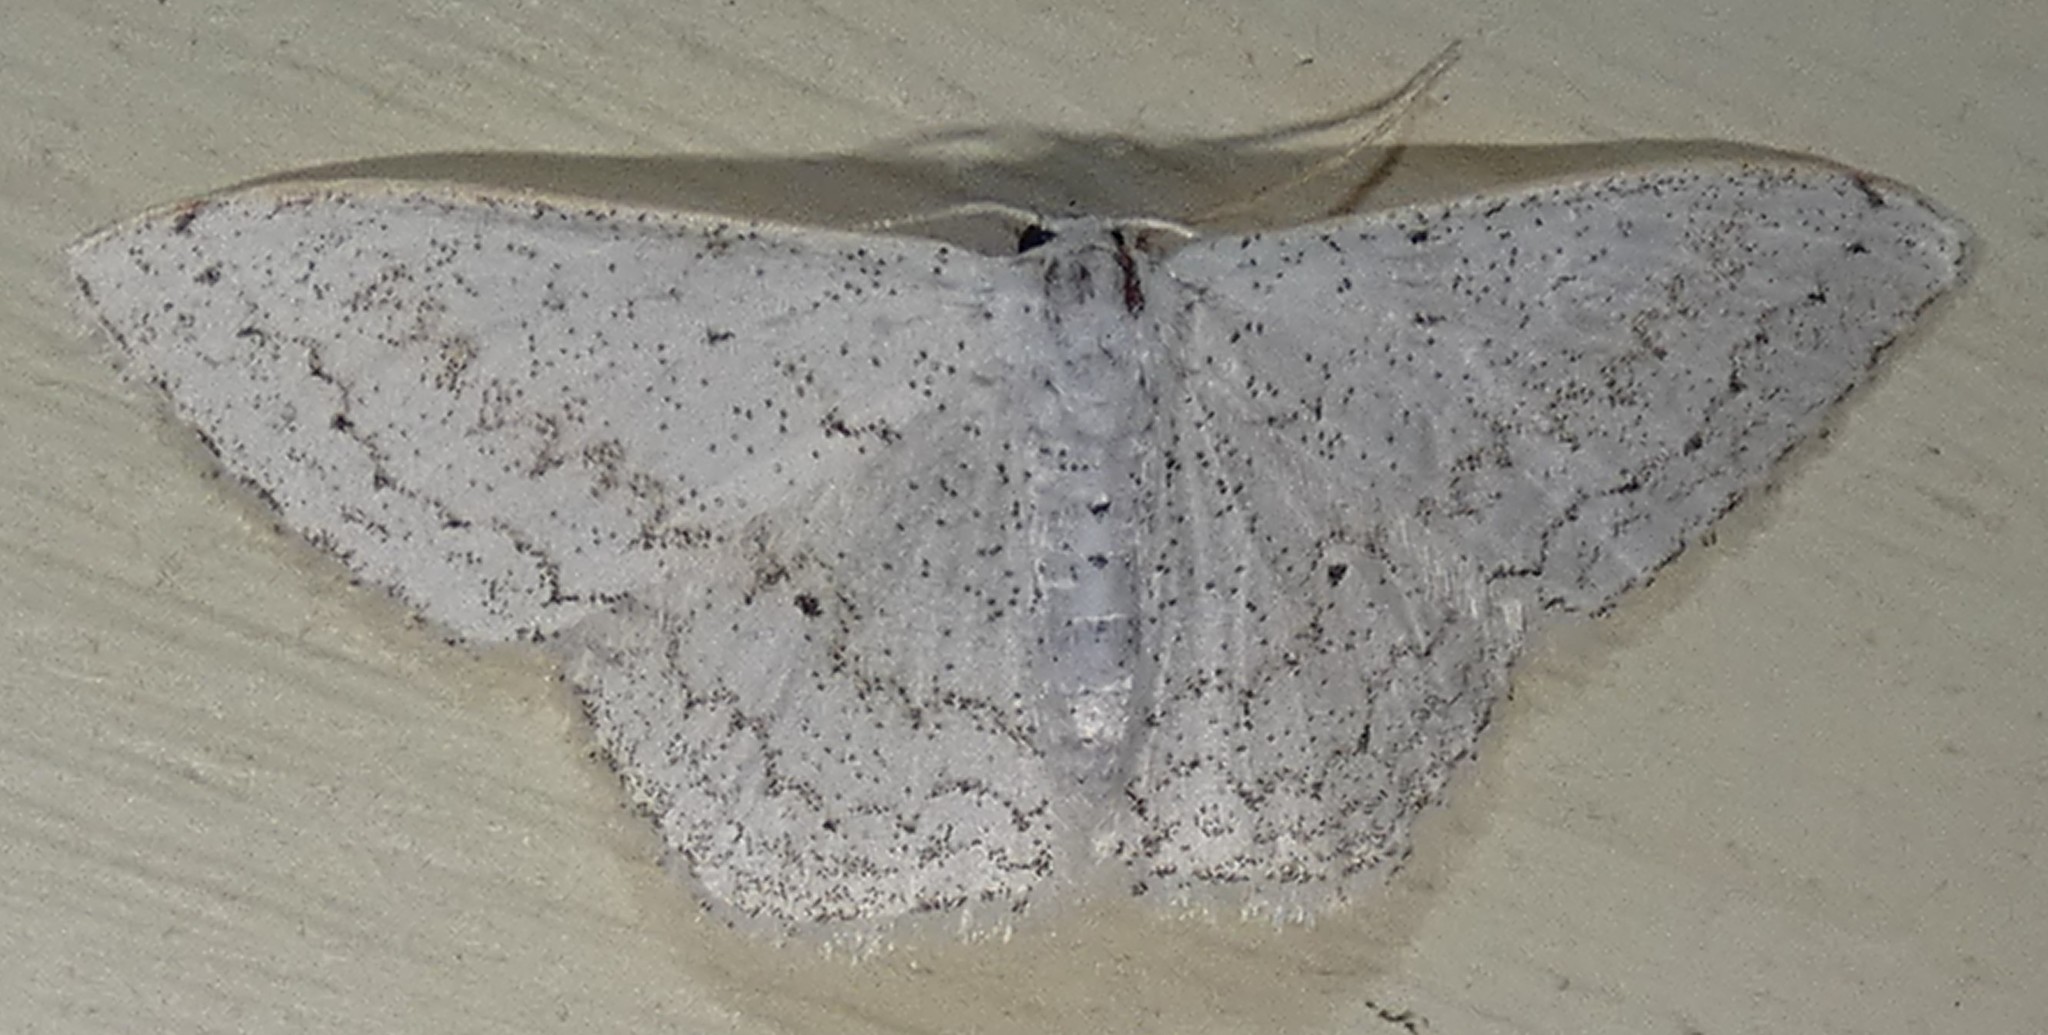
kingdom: Animalia
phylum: Arthropoda
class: Insecta
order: Lepidoptera
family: Geometridae
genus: Idaea
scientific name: Idaea tacturata
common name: Dot-lined wave
